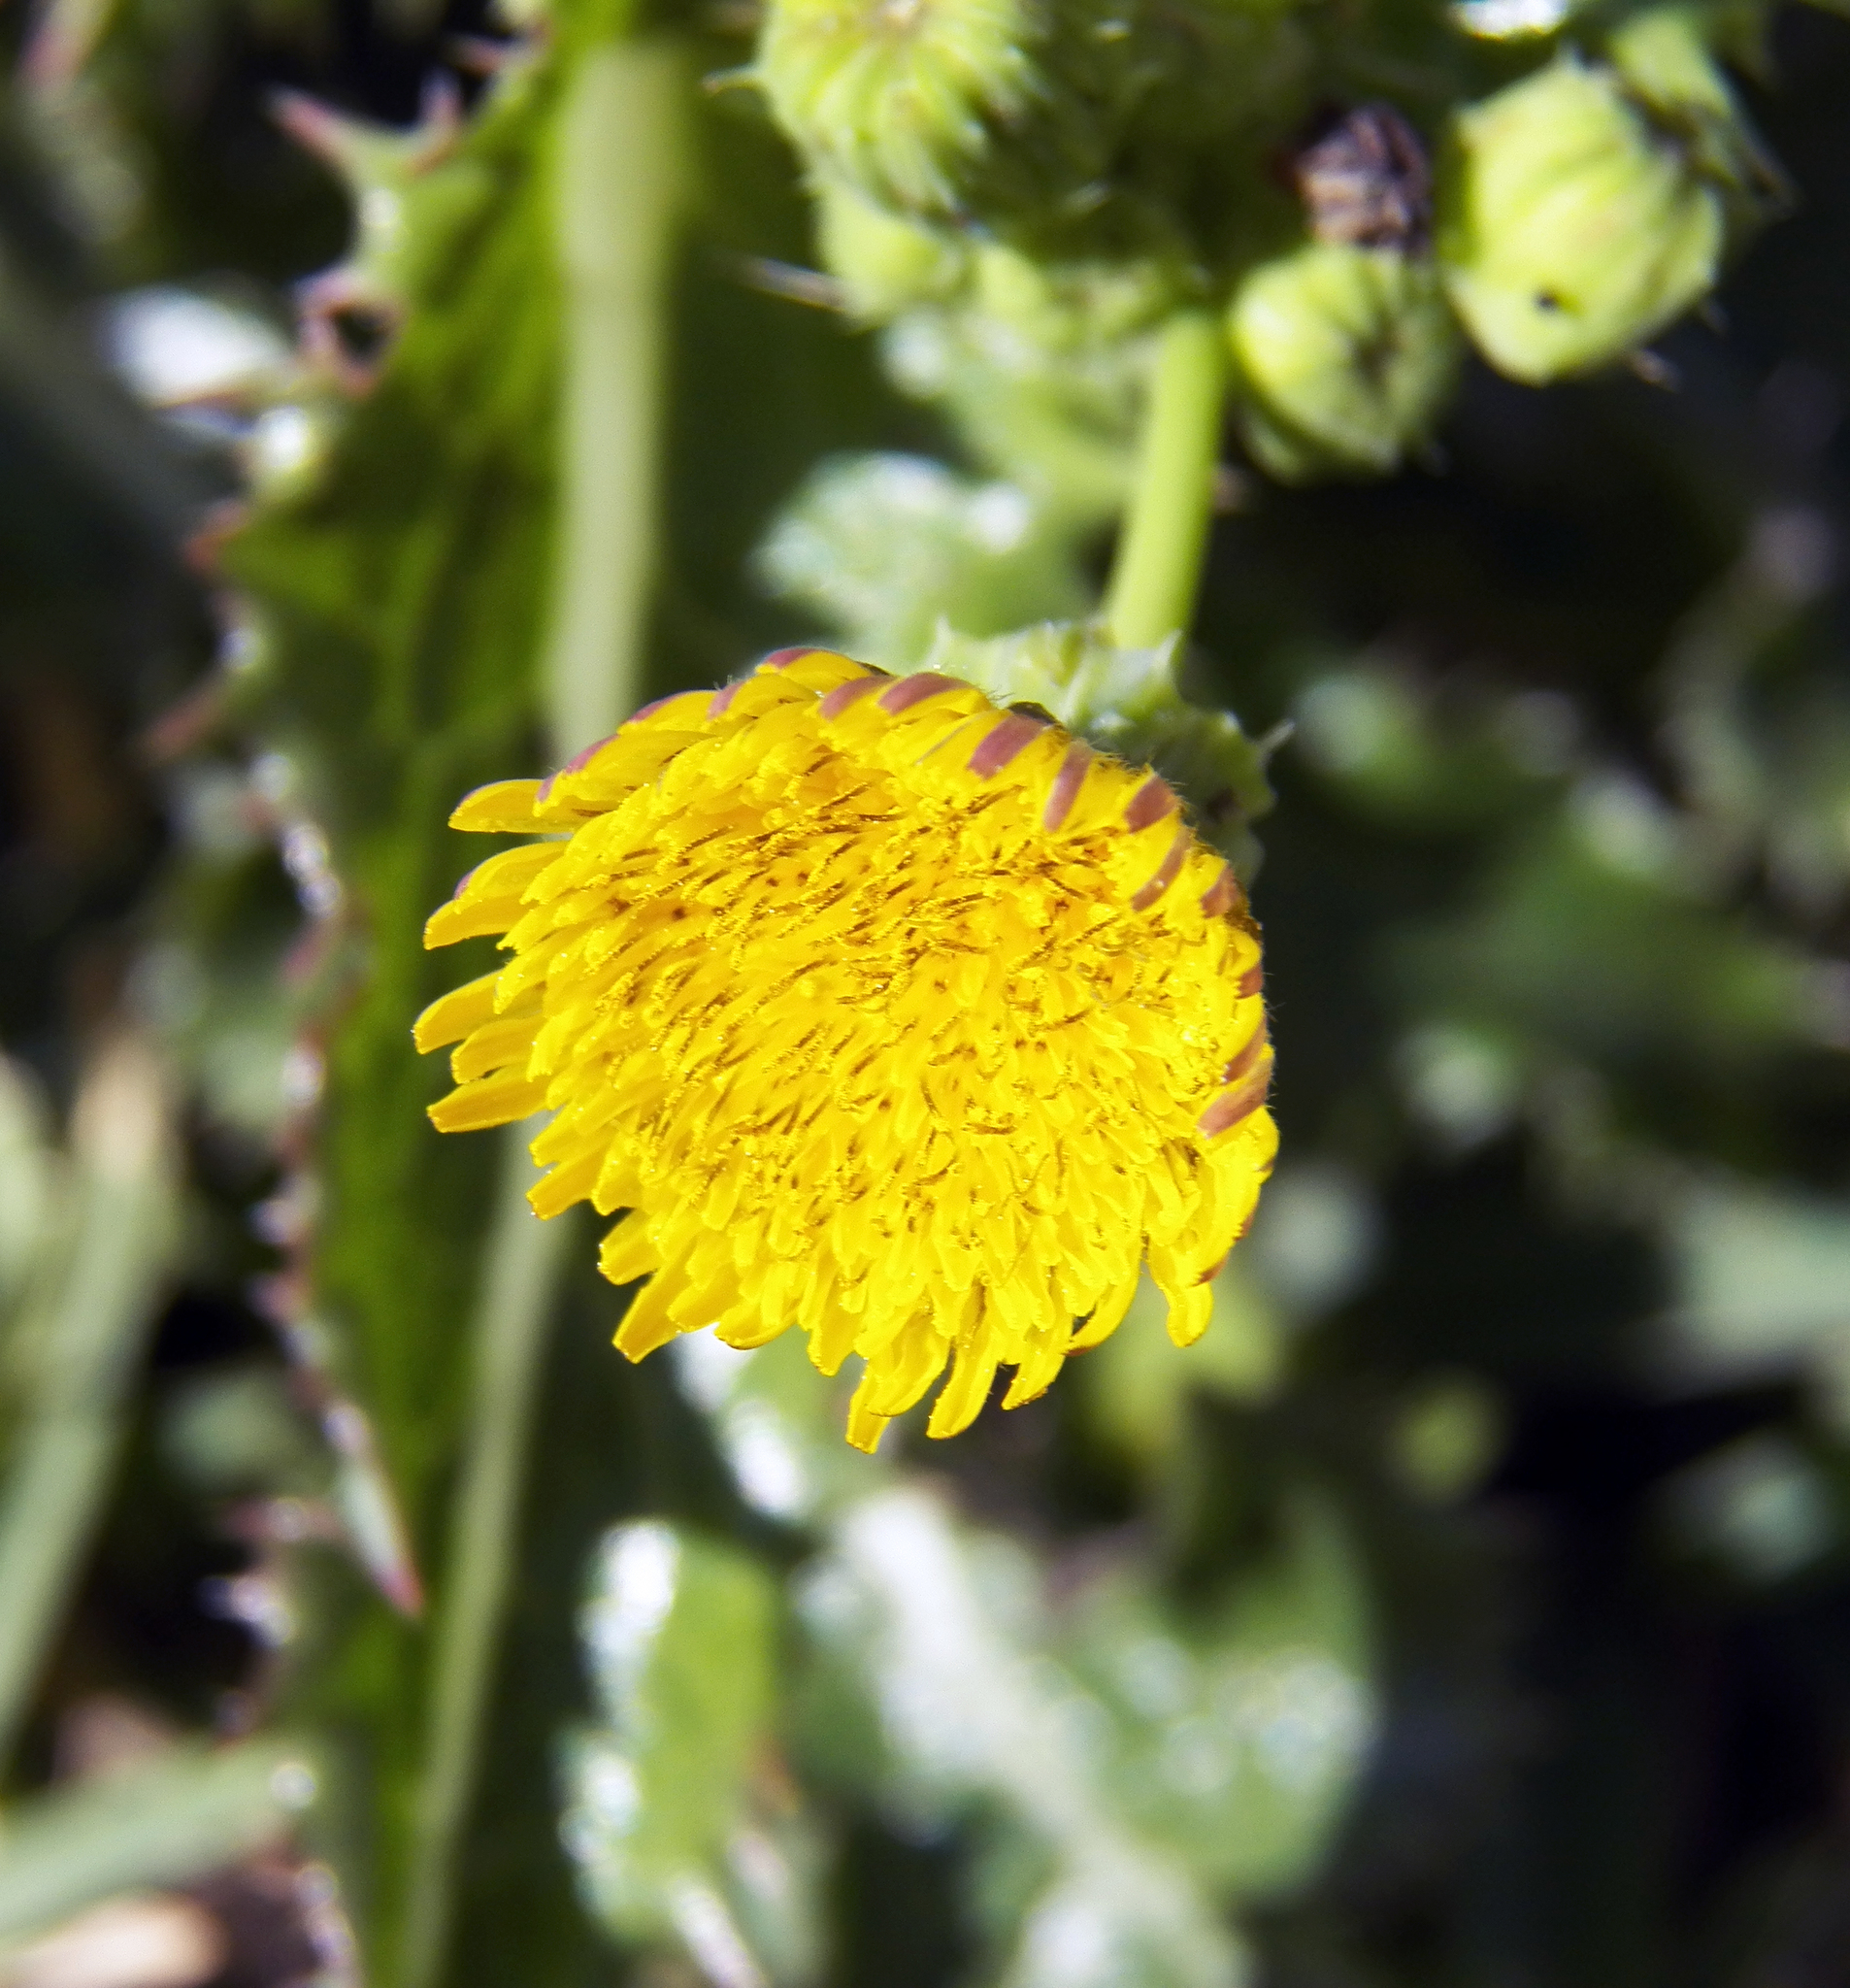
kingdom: Plantae
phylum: Tracheophyta
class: Magnoliopsida
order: Asterales
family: Asteraceae
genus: Sonchus
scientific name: Sonchus asper
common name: Prickly sow-thistle
